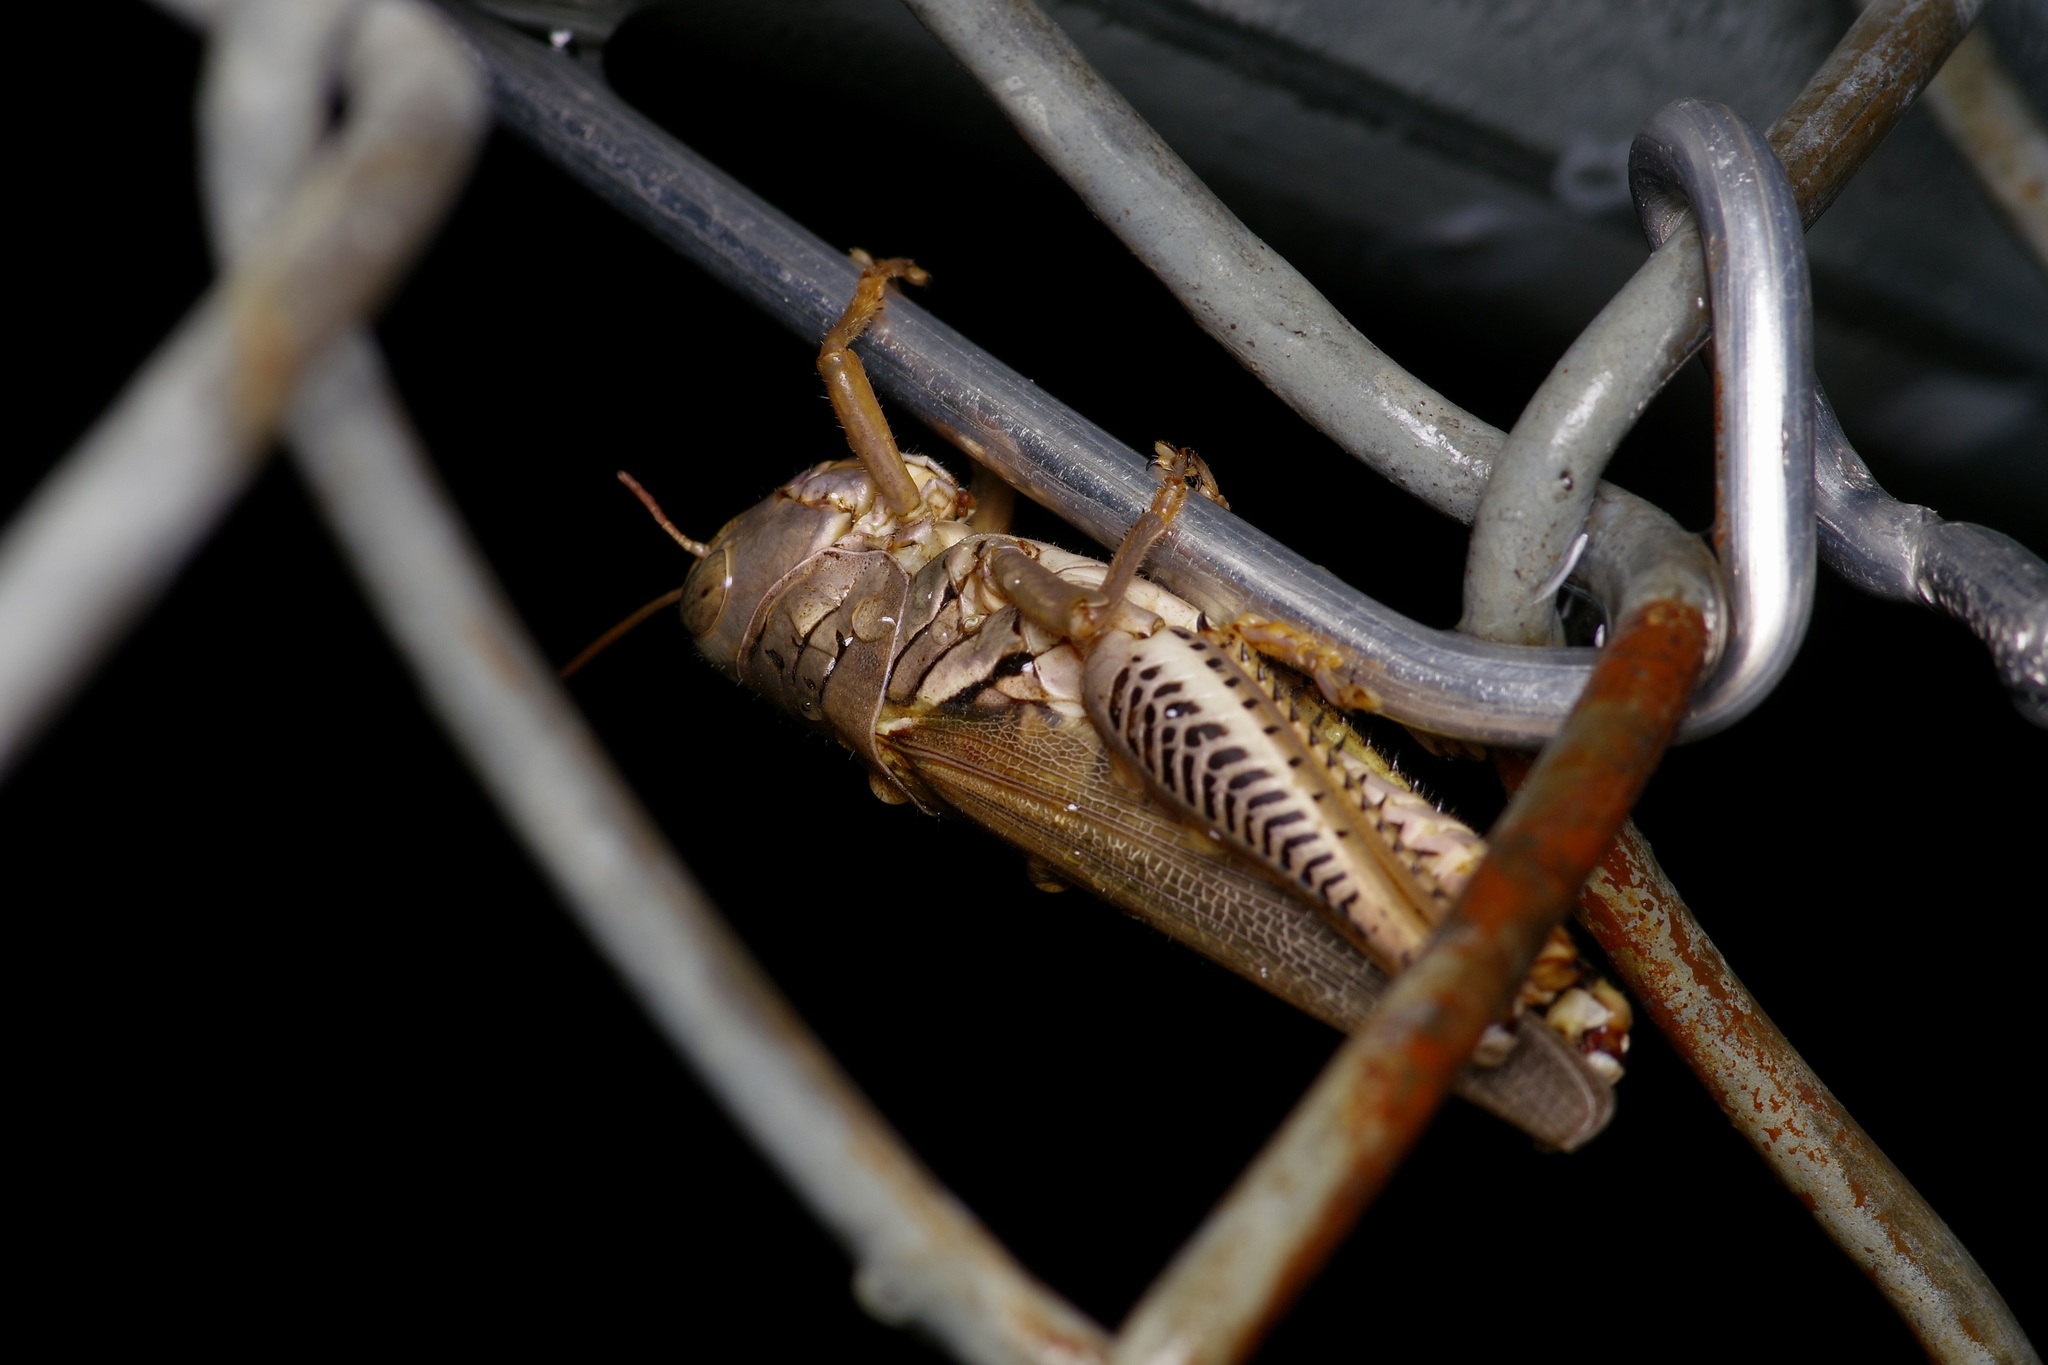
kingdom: Animalia
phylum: Arthropoda
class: Insecta
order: Orthoptera
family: Acrididae
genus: Melanoplus
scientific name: Melanoplus differentialis
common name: Differential grasshopper
